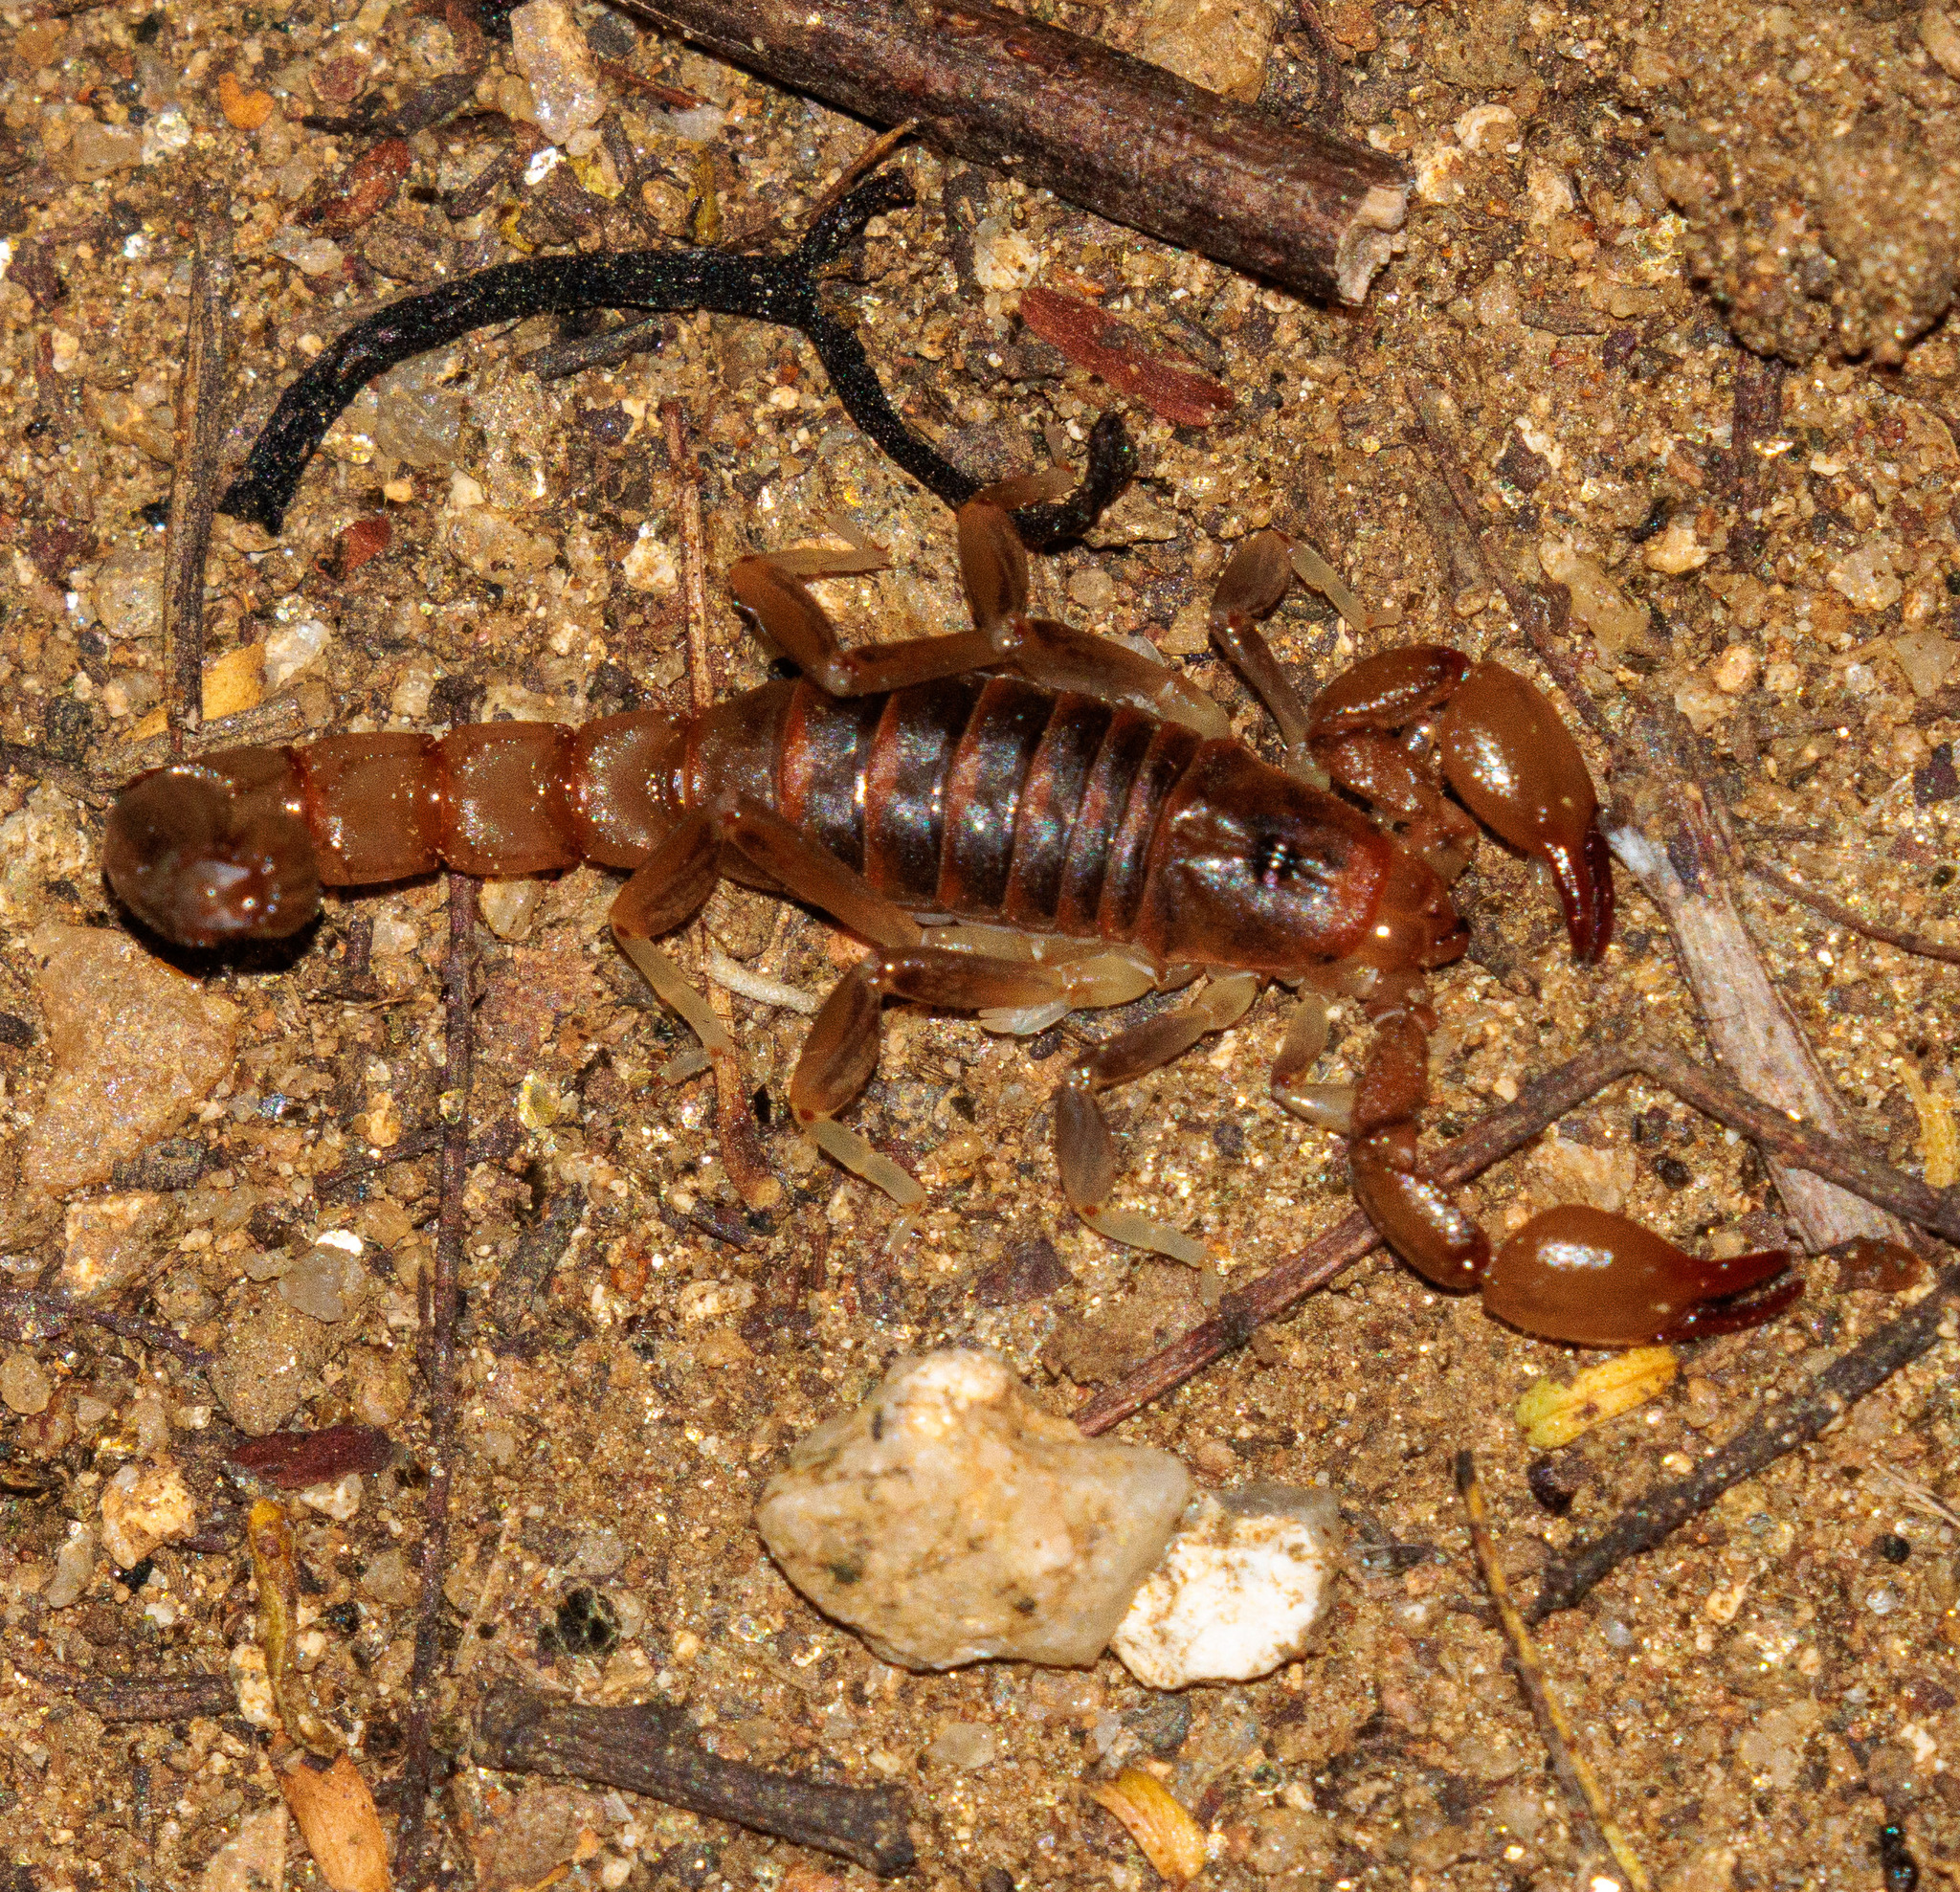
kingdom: Animalia
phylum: Arthropoda
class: Arachnida
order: Scorpiones
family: Bothriuridae
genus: Bothriurus
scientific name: Bothriurus rochai
